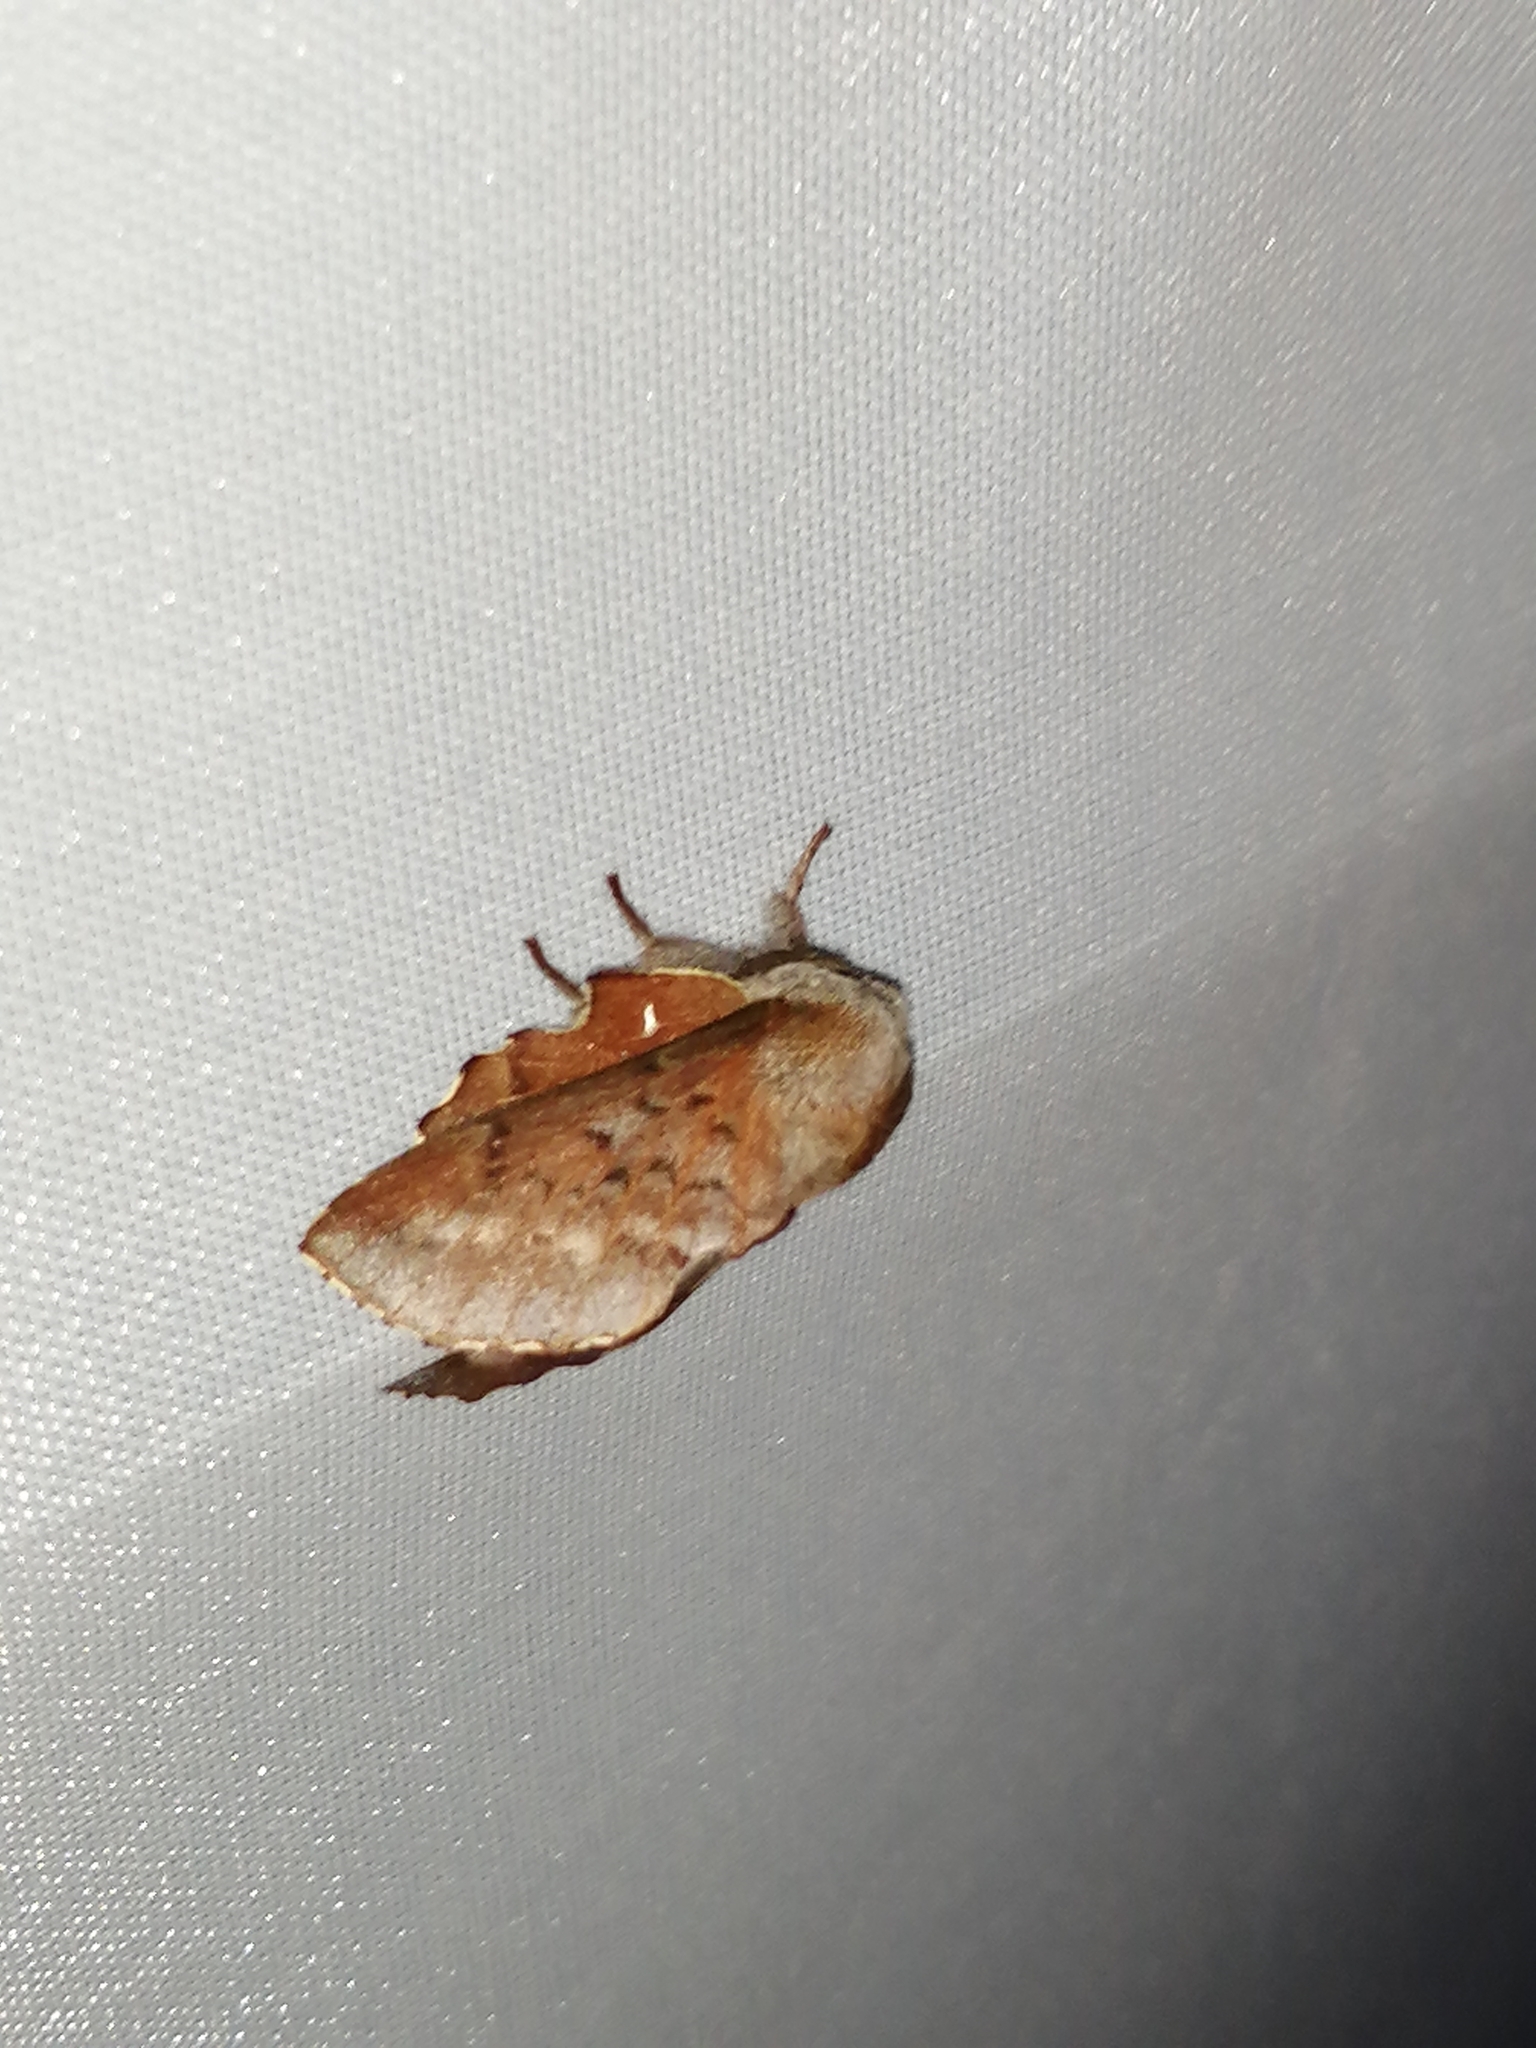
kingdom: Animalia
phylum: Arthropoda
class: Insecta
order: Lepidoptera
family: Lasiocampidae
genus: Phyllodesma
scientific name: Phyllodesma americana
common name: American lappet moth
